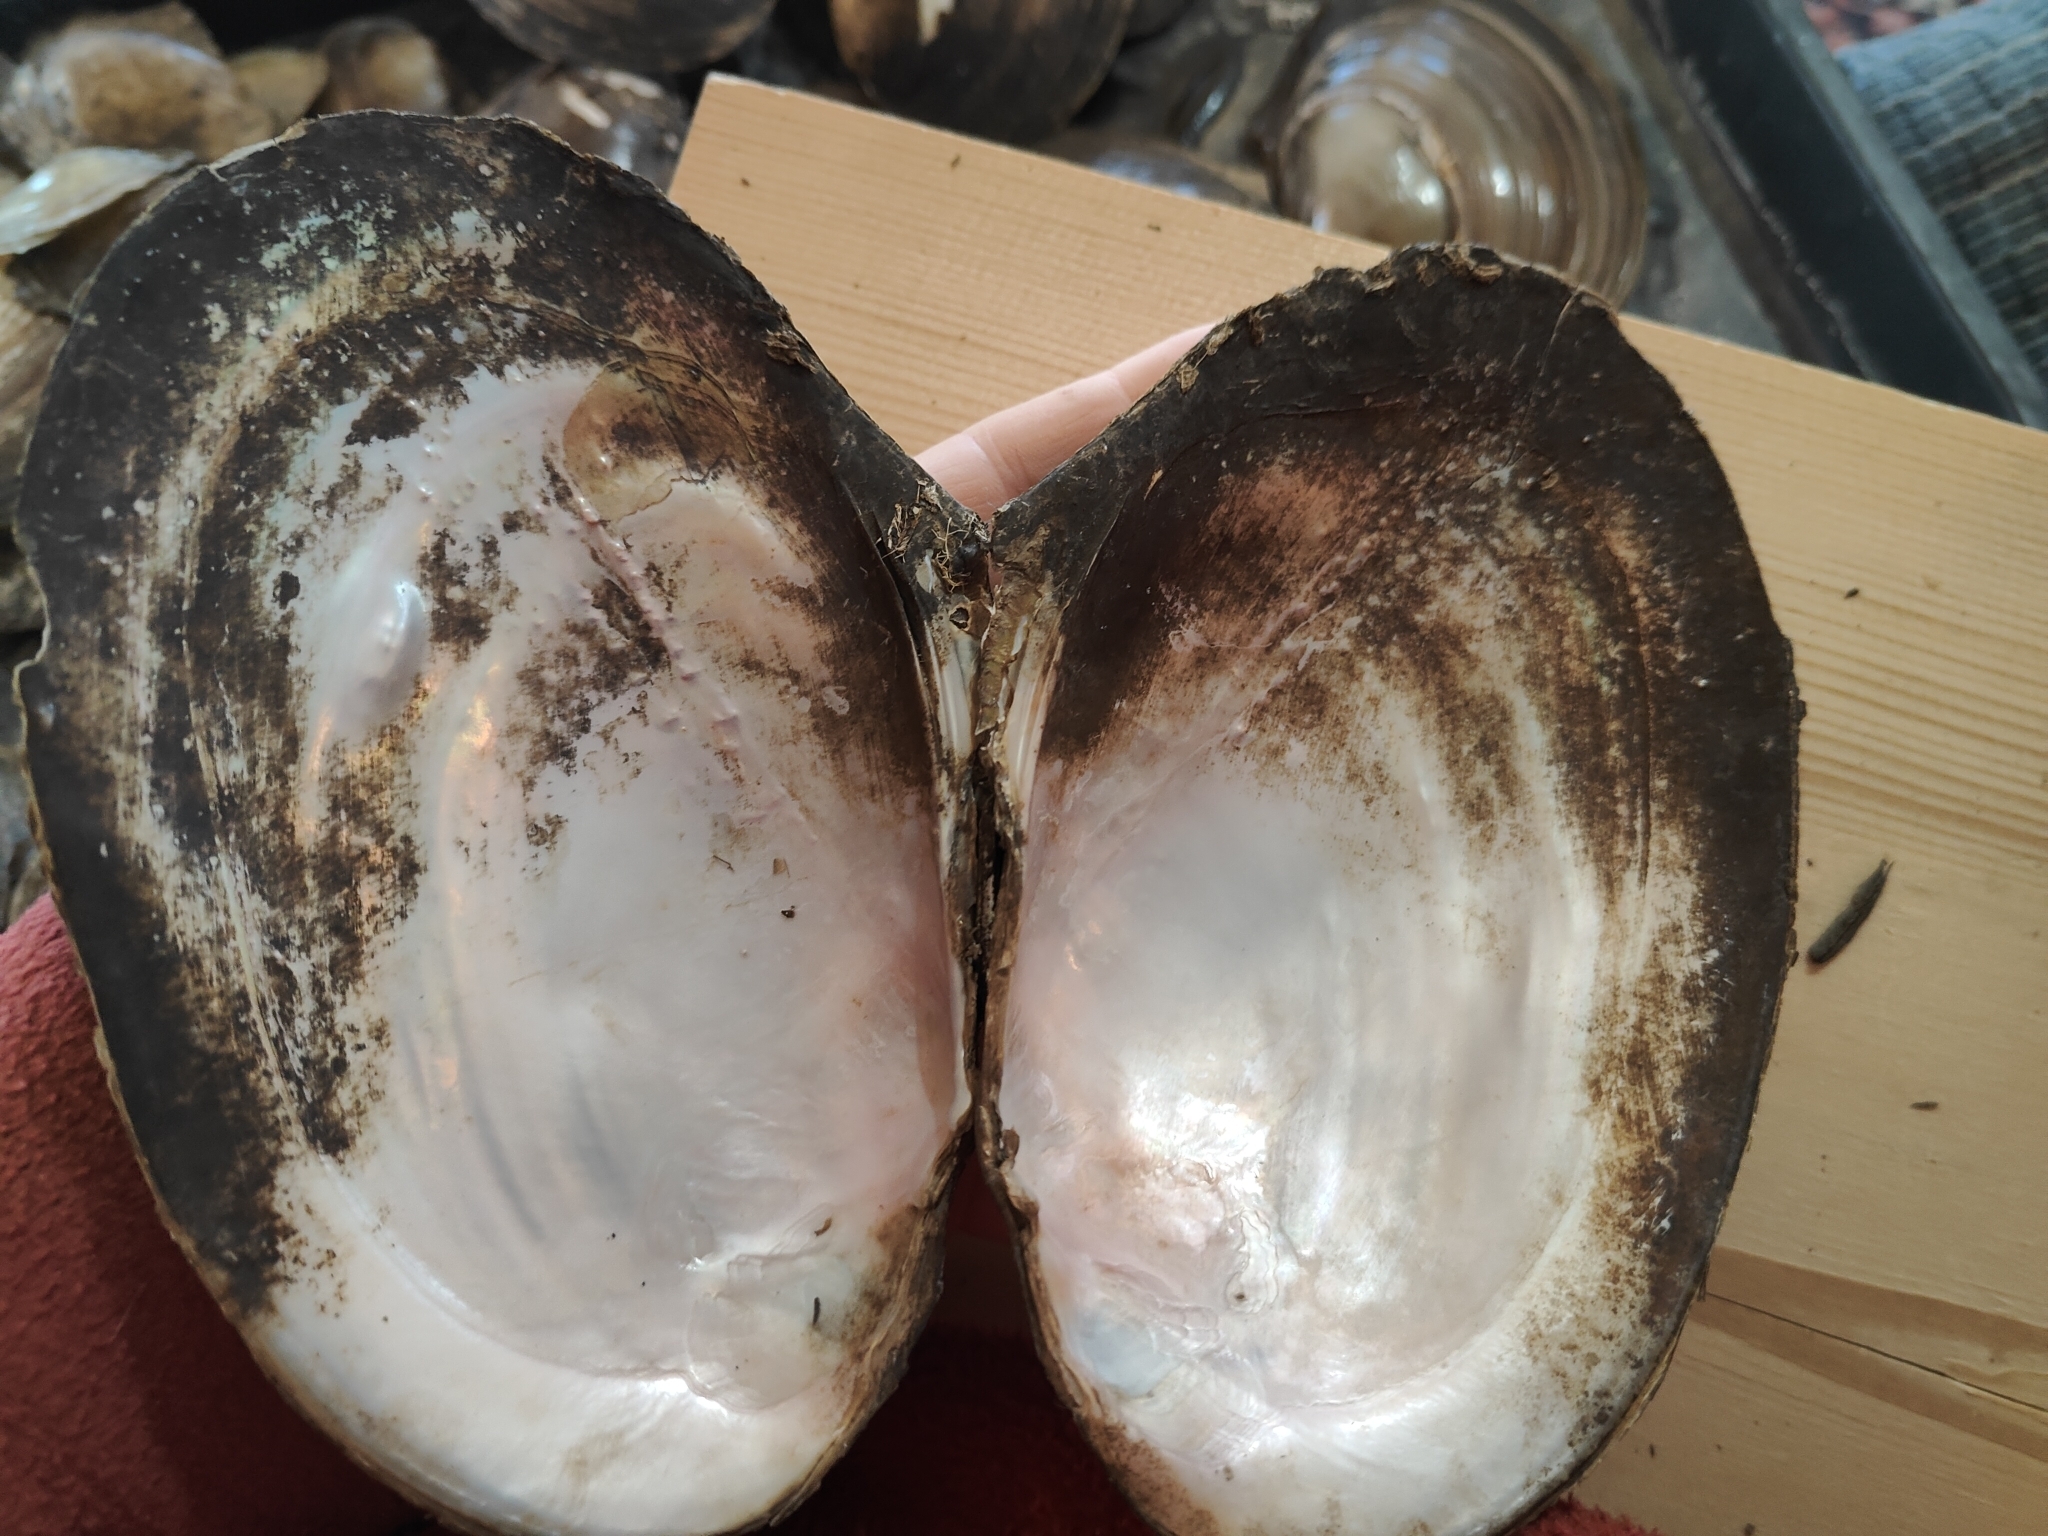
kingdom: Animalia
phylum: Mollusca
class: Bivalvia
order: Unionida
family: Unionidae
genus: Potamilus
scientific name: Potamilus fragilis
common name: Fragile papershell
